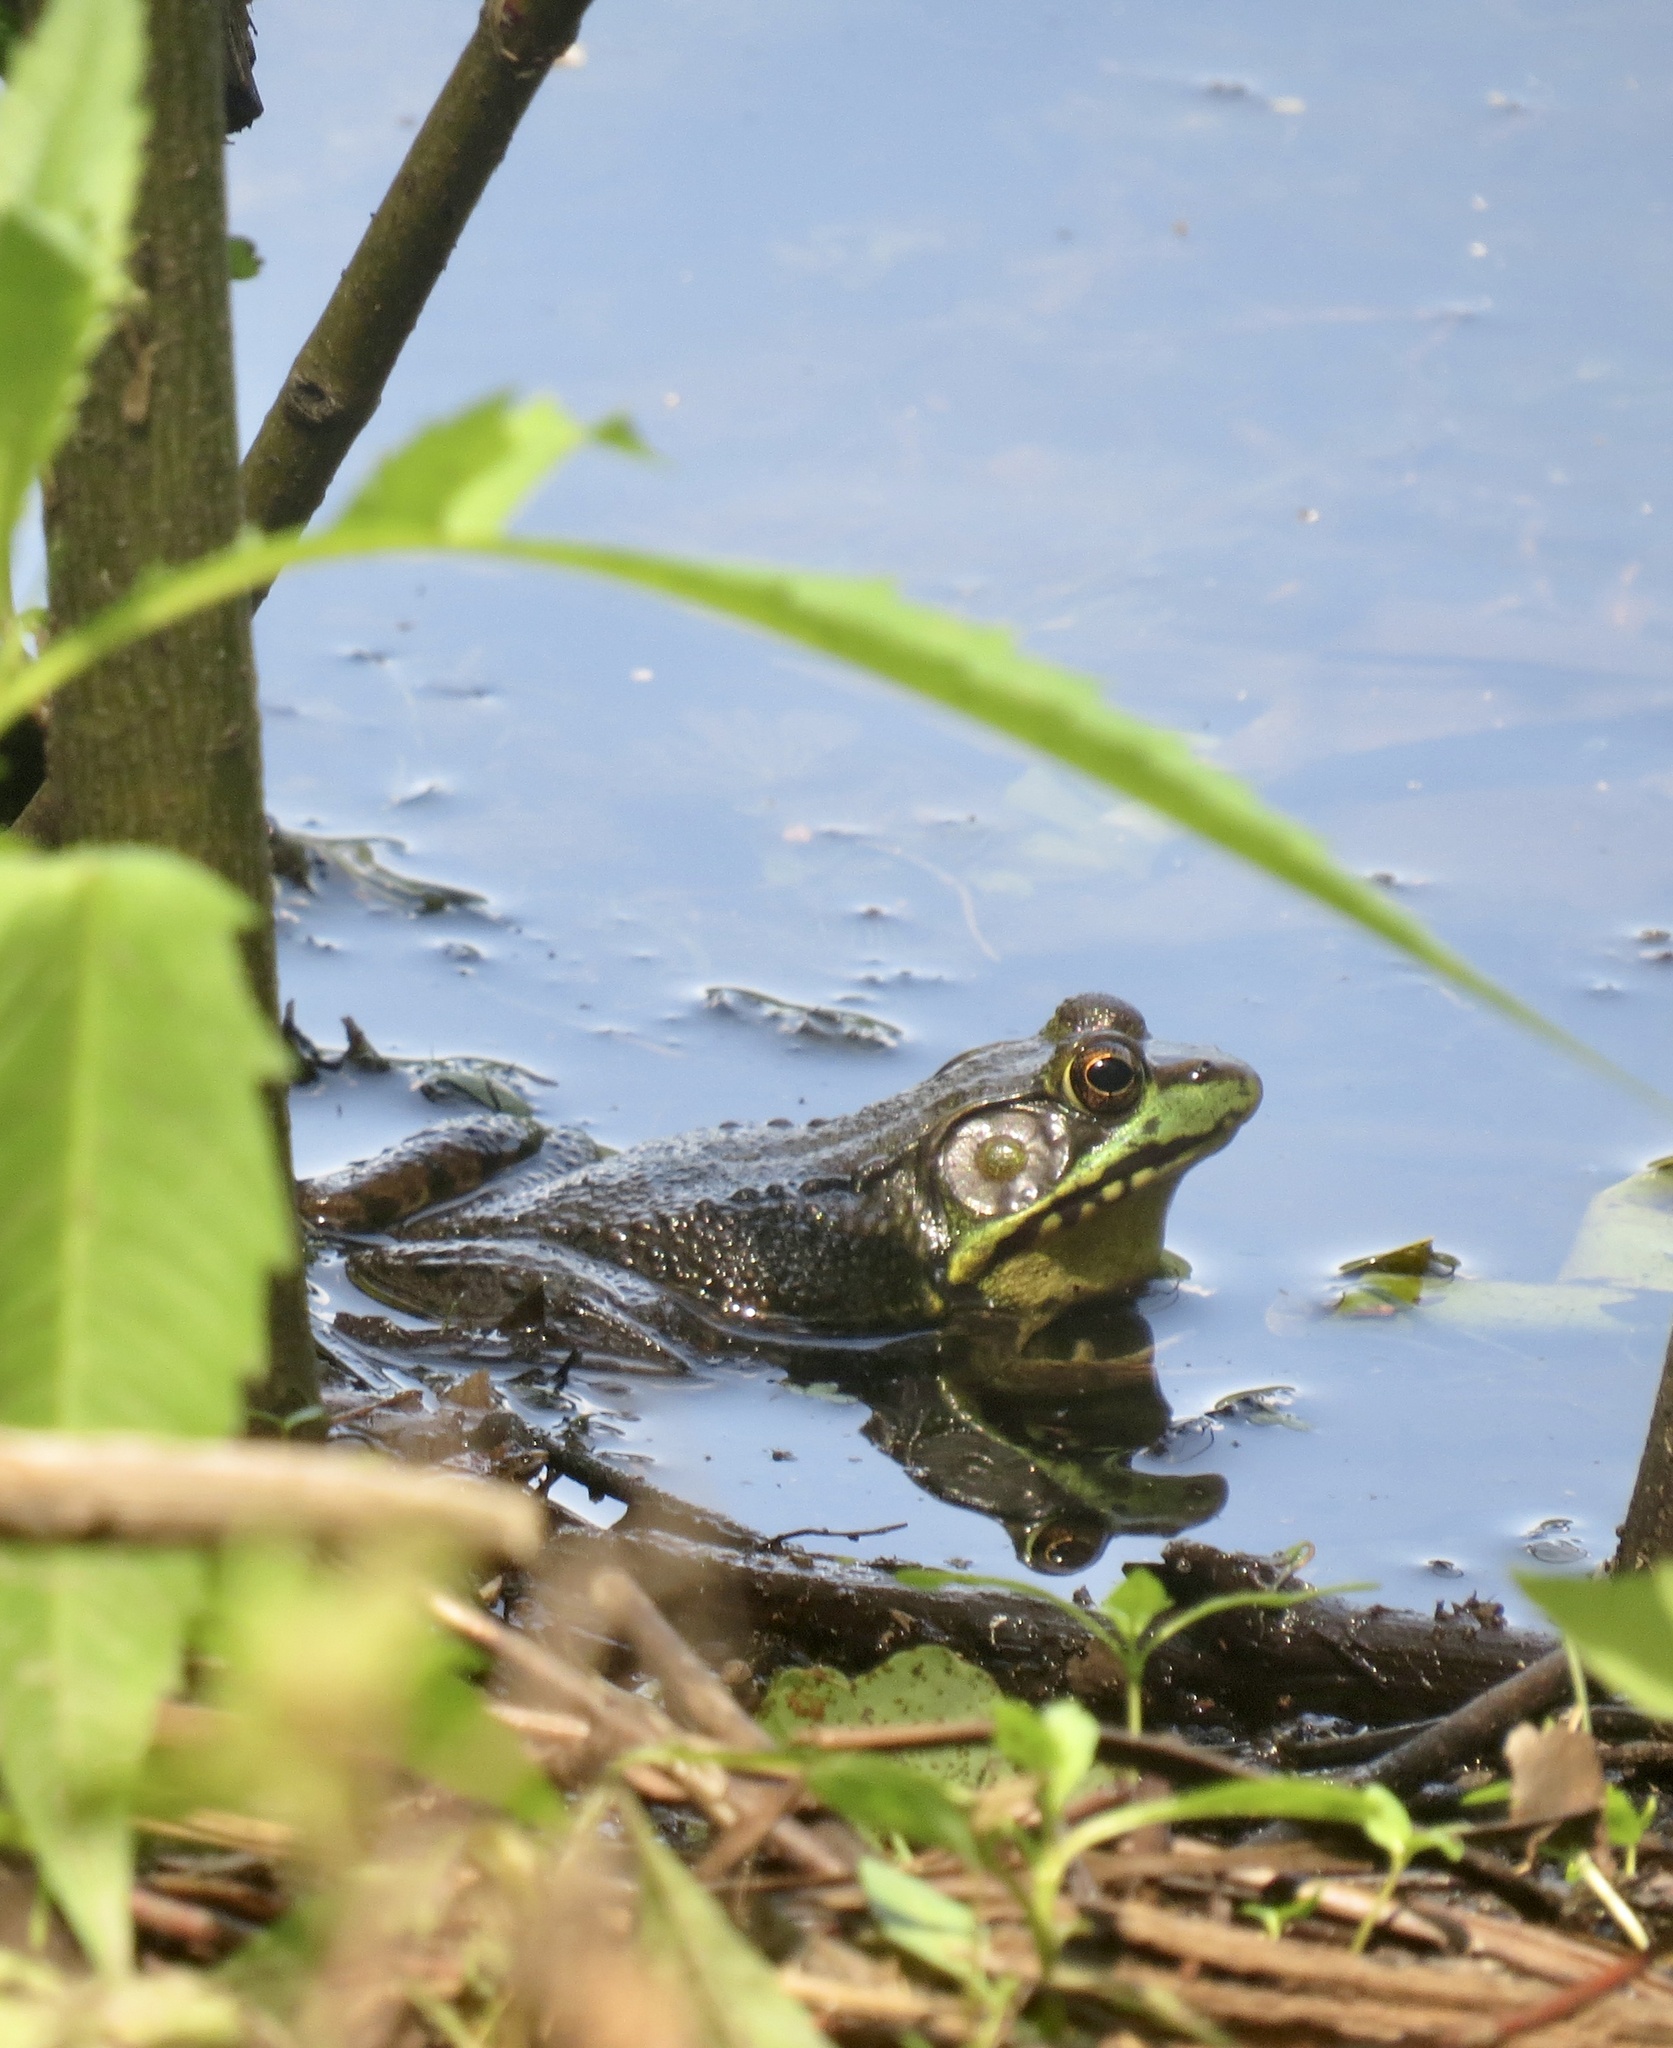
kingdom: Animalia
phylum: Chordata
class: Amphibia
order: Anura
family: Ranidae
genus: Lithobates
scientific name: Lithobates clamitans
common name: Green frog
